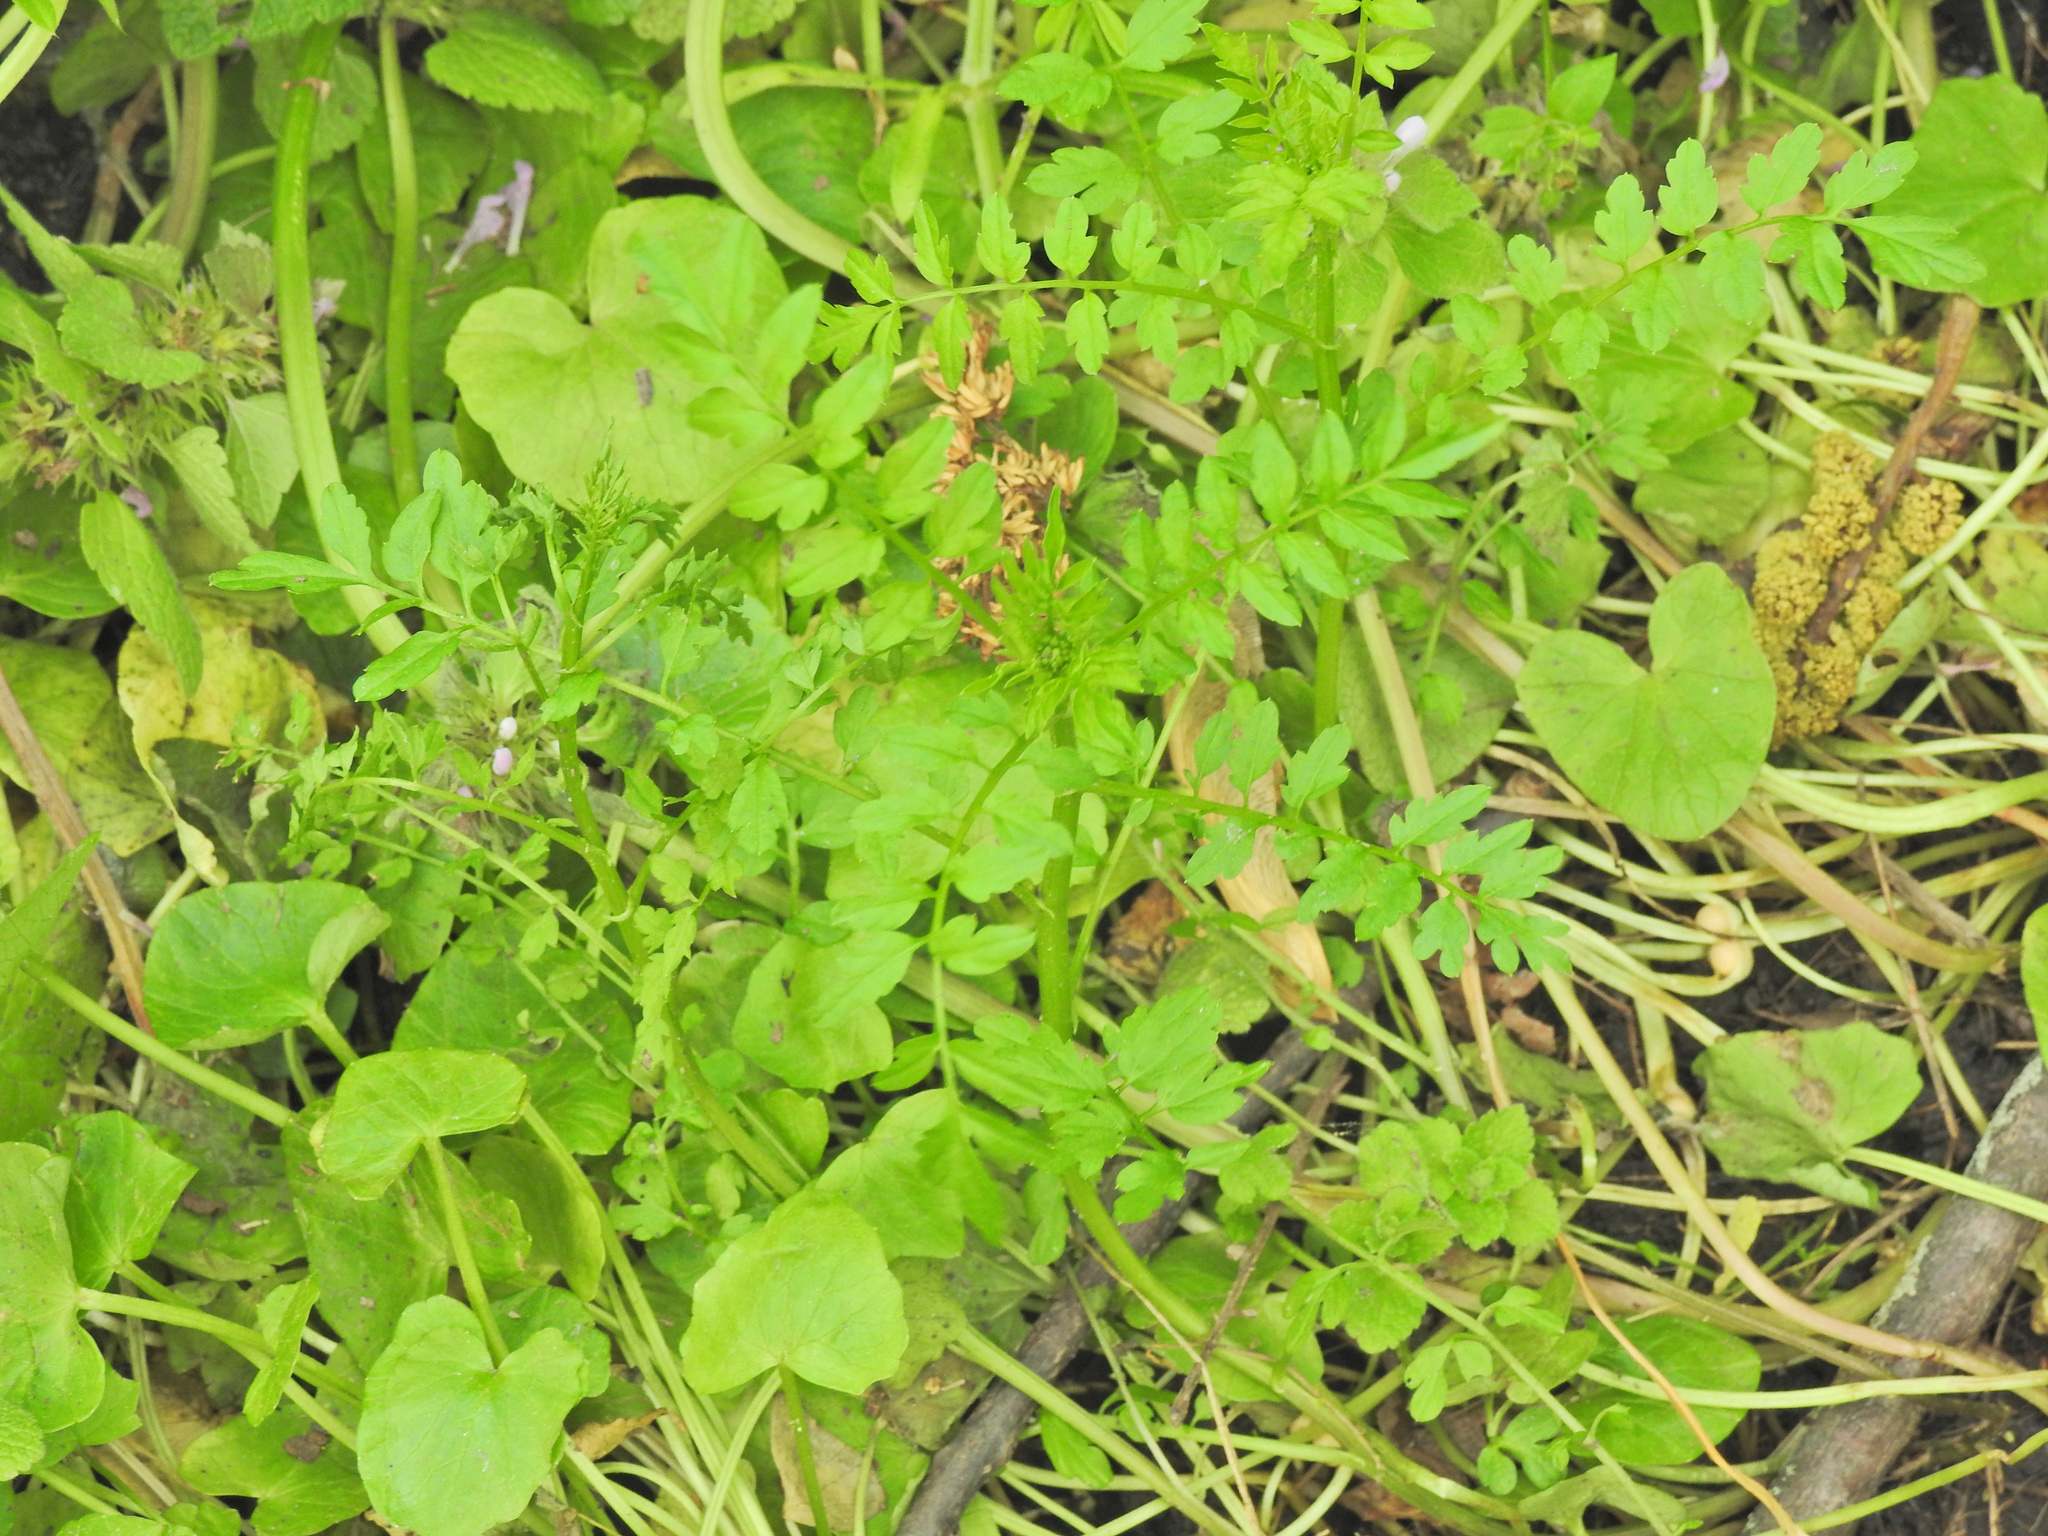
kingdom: Plantae
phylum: Tracheophyta
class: Magnoliopsida
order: Brassicales
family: Brassicaceae
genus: Cardamine
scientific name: Cardamine impatiens
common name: Narrow-leaved bitter-cress
